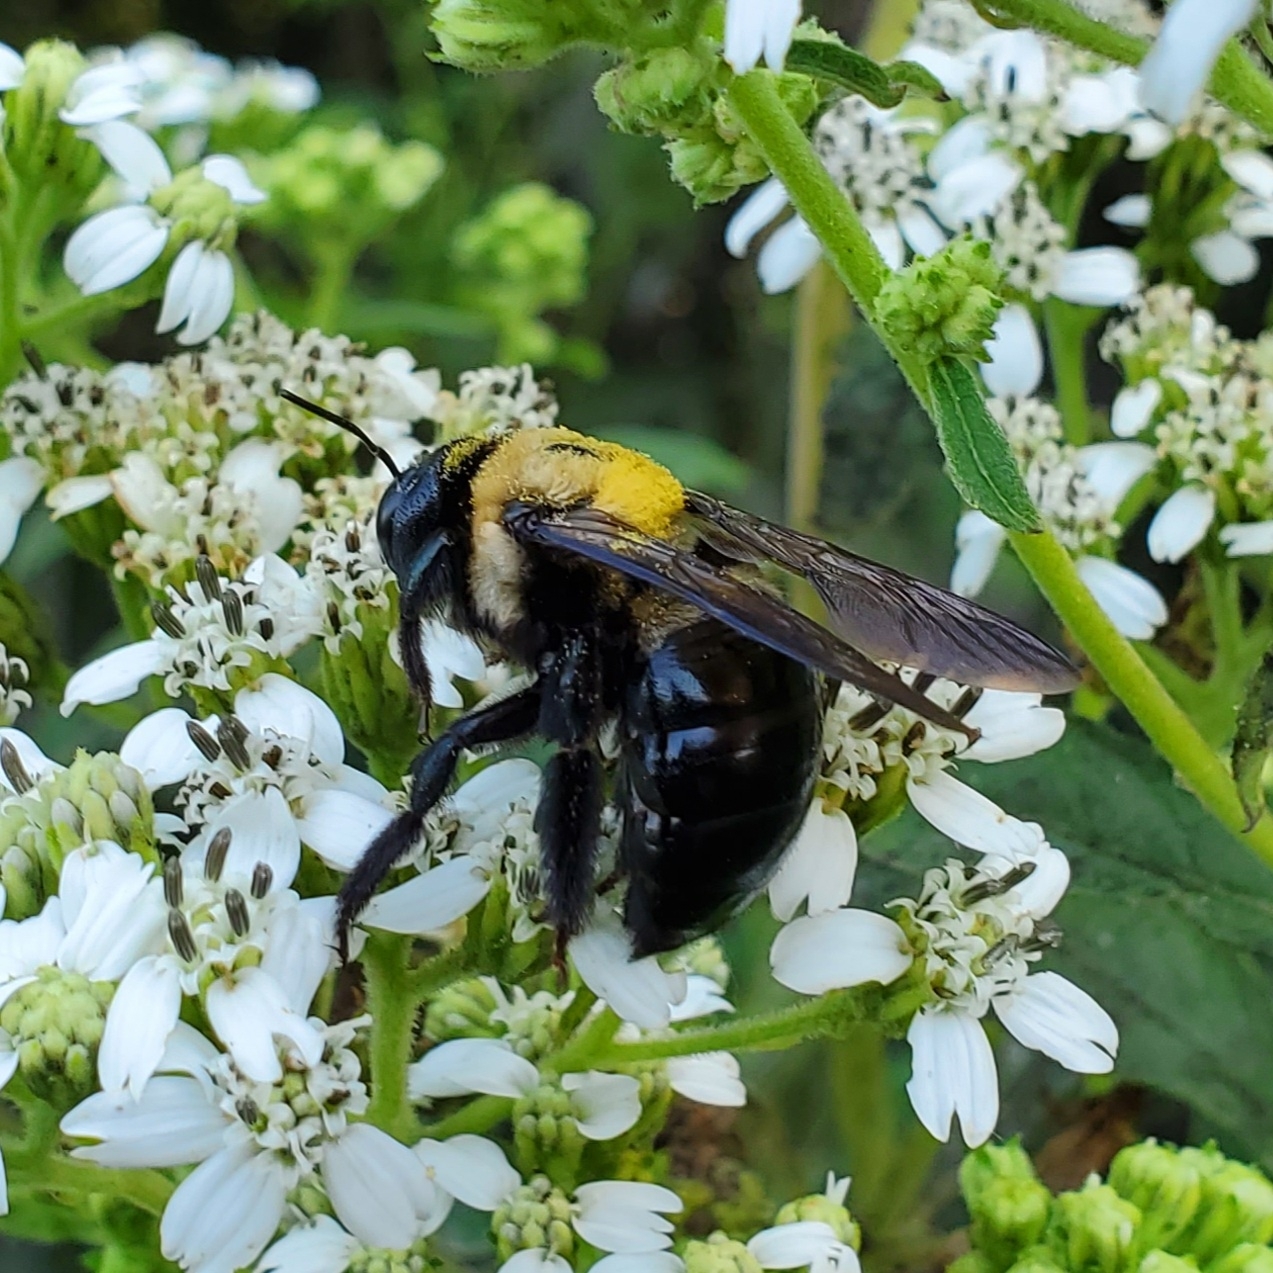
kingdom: Animalia
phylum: Arthropoda
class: Insecta
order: Hymenoptera
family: Apidae
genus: Xylocopa
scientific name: Xylocopa virginica
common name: Carpenter bee
